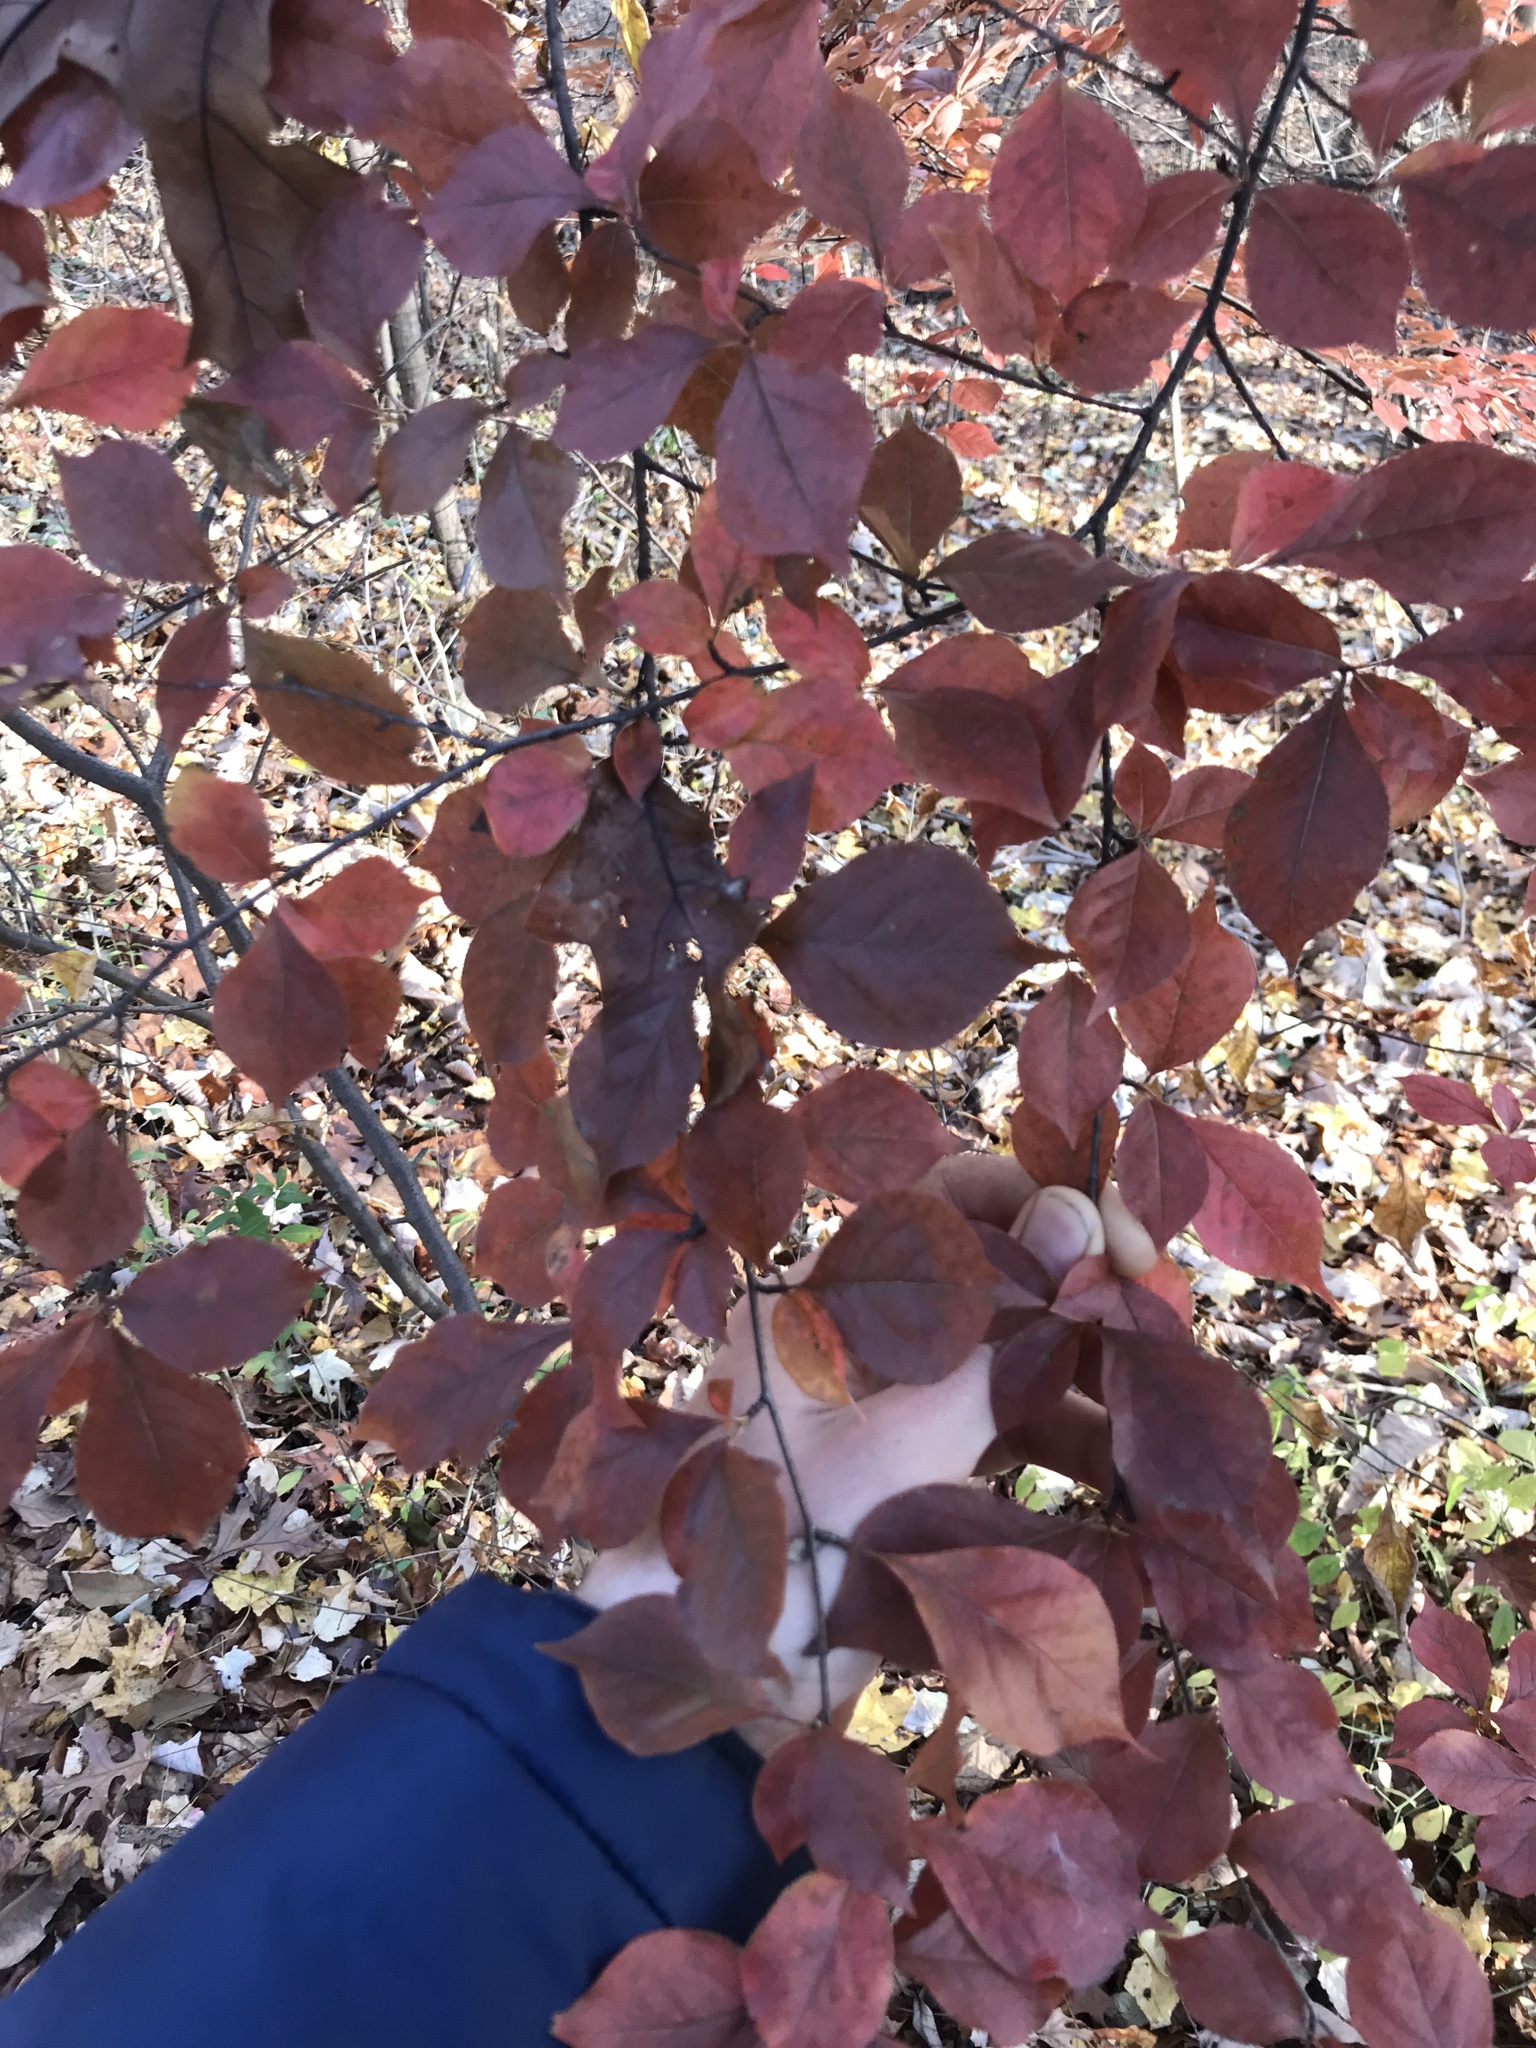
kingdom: Plantae
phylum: Tracheophyta
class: Magnoliopsida
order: Rosales
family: Rosaceae
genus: Pourthiaea
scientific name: Pourthiaea villosa
